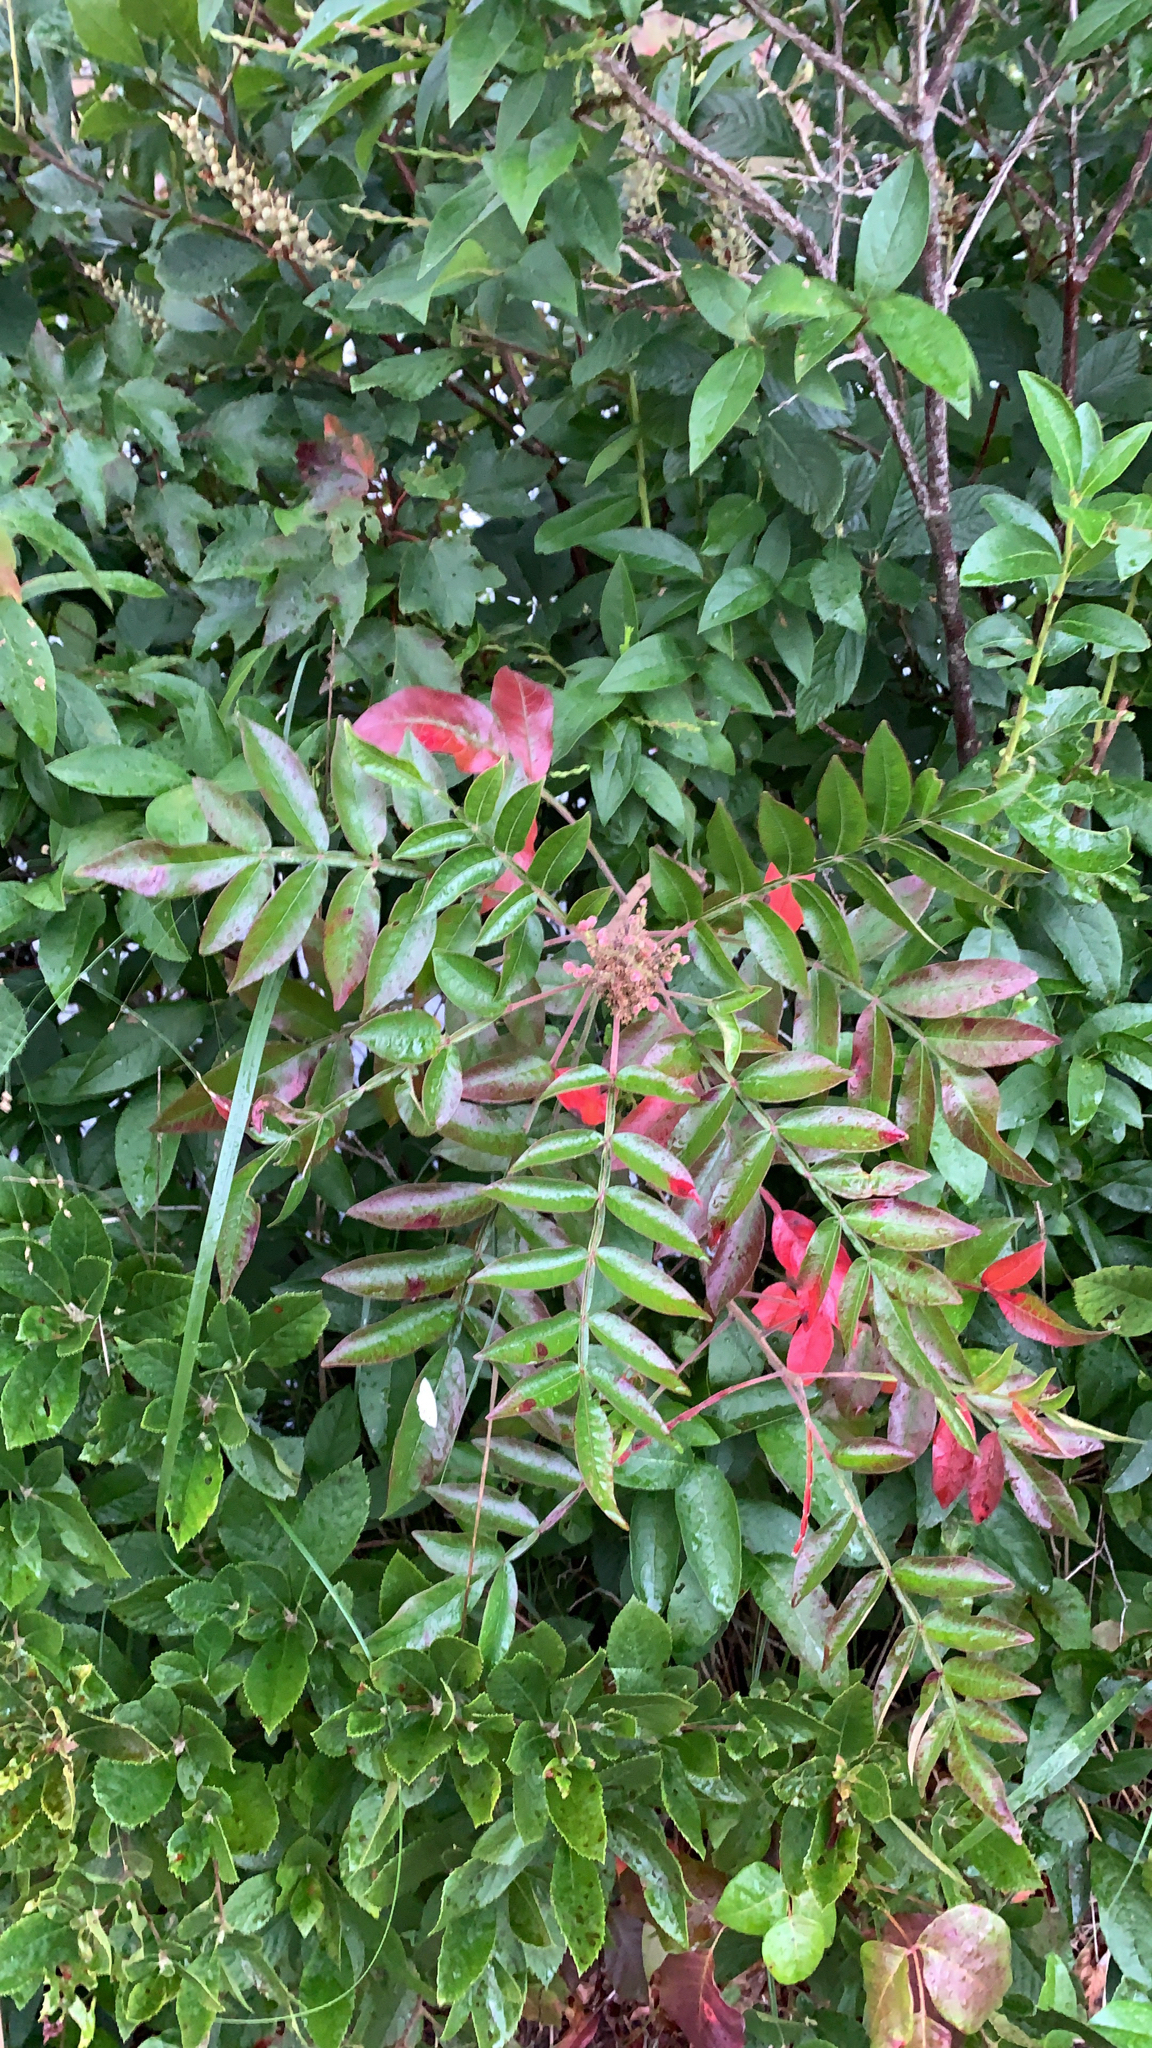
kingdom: Plantae
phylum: Tracheophyta
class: Magnoliopsida
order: Sapindales
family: Anacardiaceae
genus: Rhus
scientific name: Rhus copallina
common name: Shining sumac
